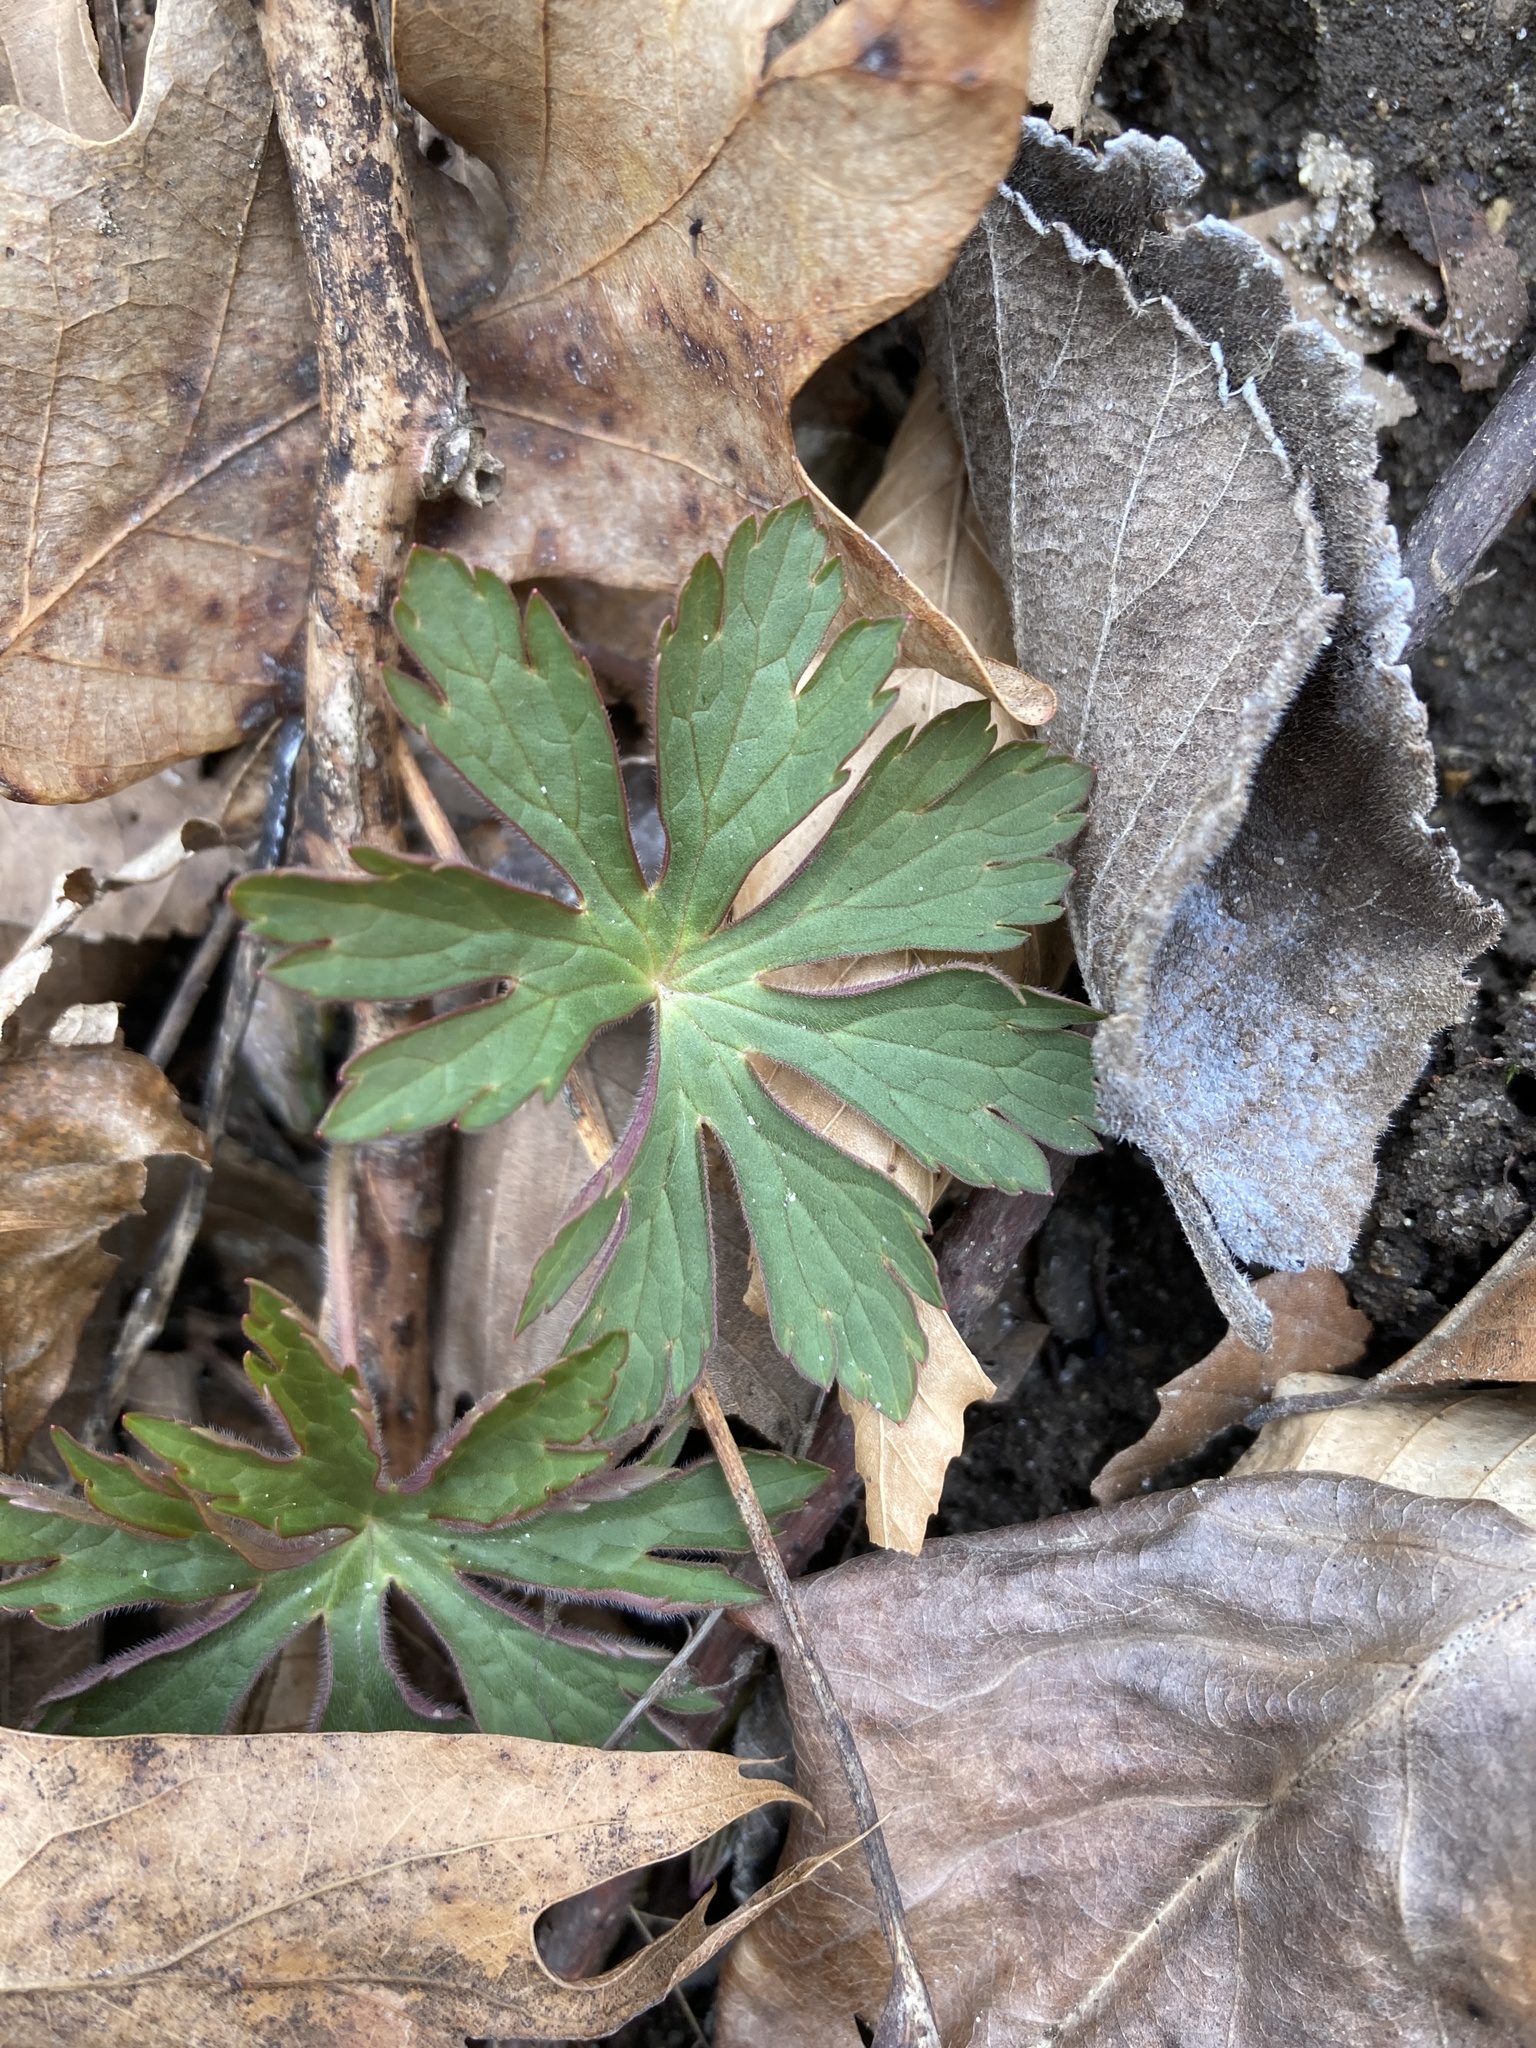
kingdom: Plantae
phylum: Tracheophyta
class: Magnoliopsida
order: Geraniales
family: Geraniaceae
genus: Geranium
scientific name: Geranium maculatum
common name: Spotted geranium
